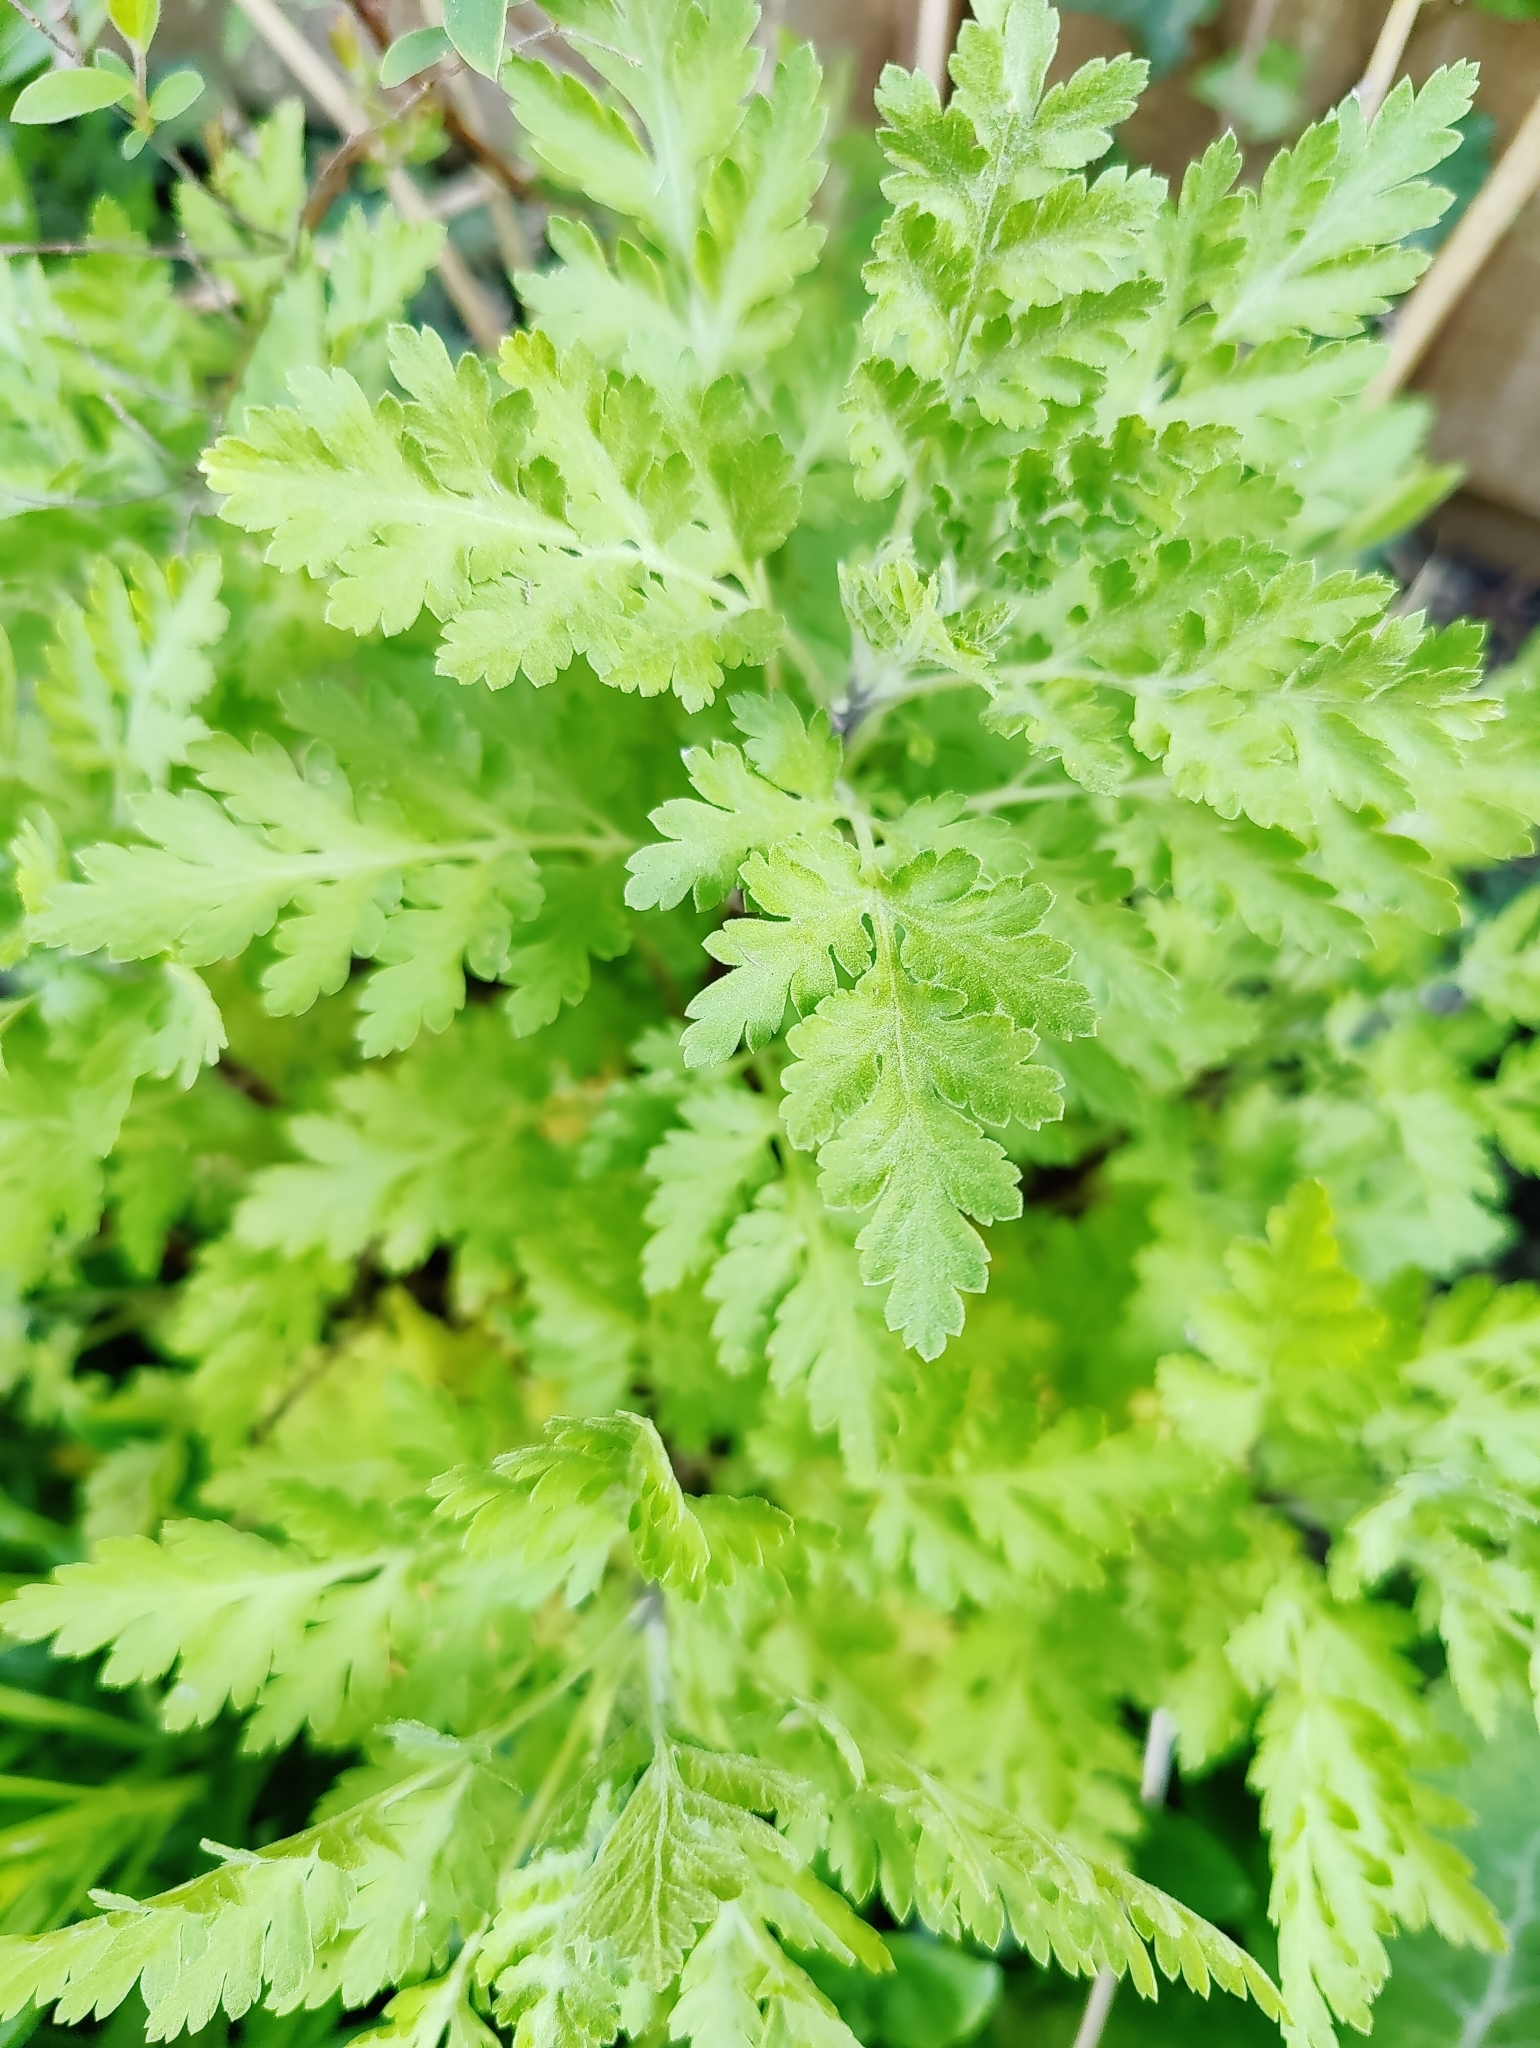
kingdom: Plantae
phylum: Tracheophyta
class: Magnoliopsida
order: Asterales
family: Asteraceae
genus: Tanacetum
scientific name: Tanacetum parthenium
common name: Feverfew
